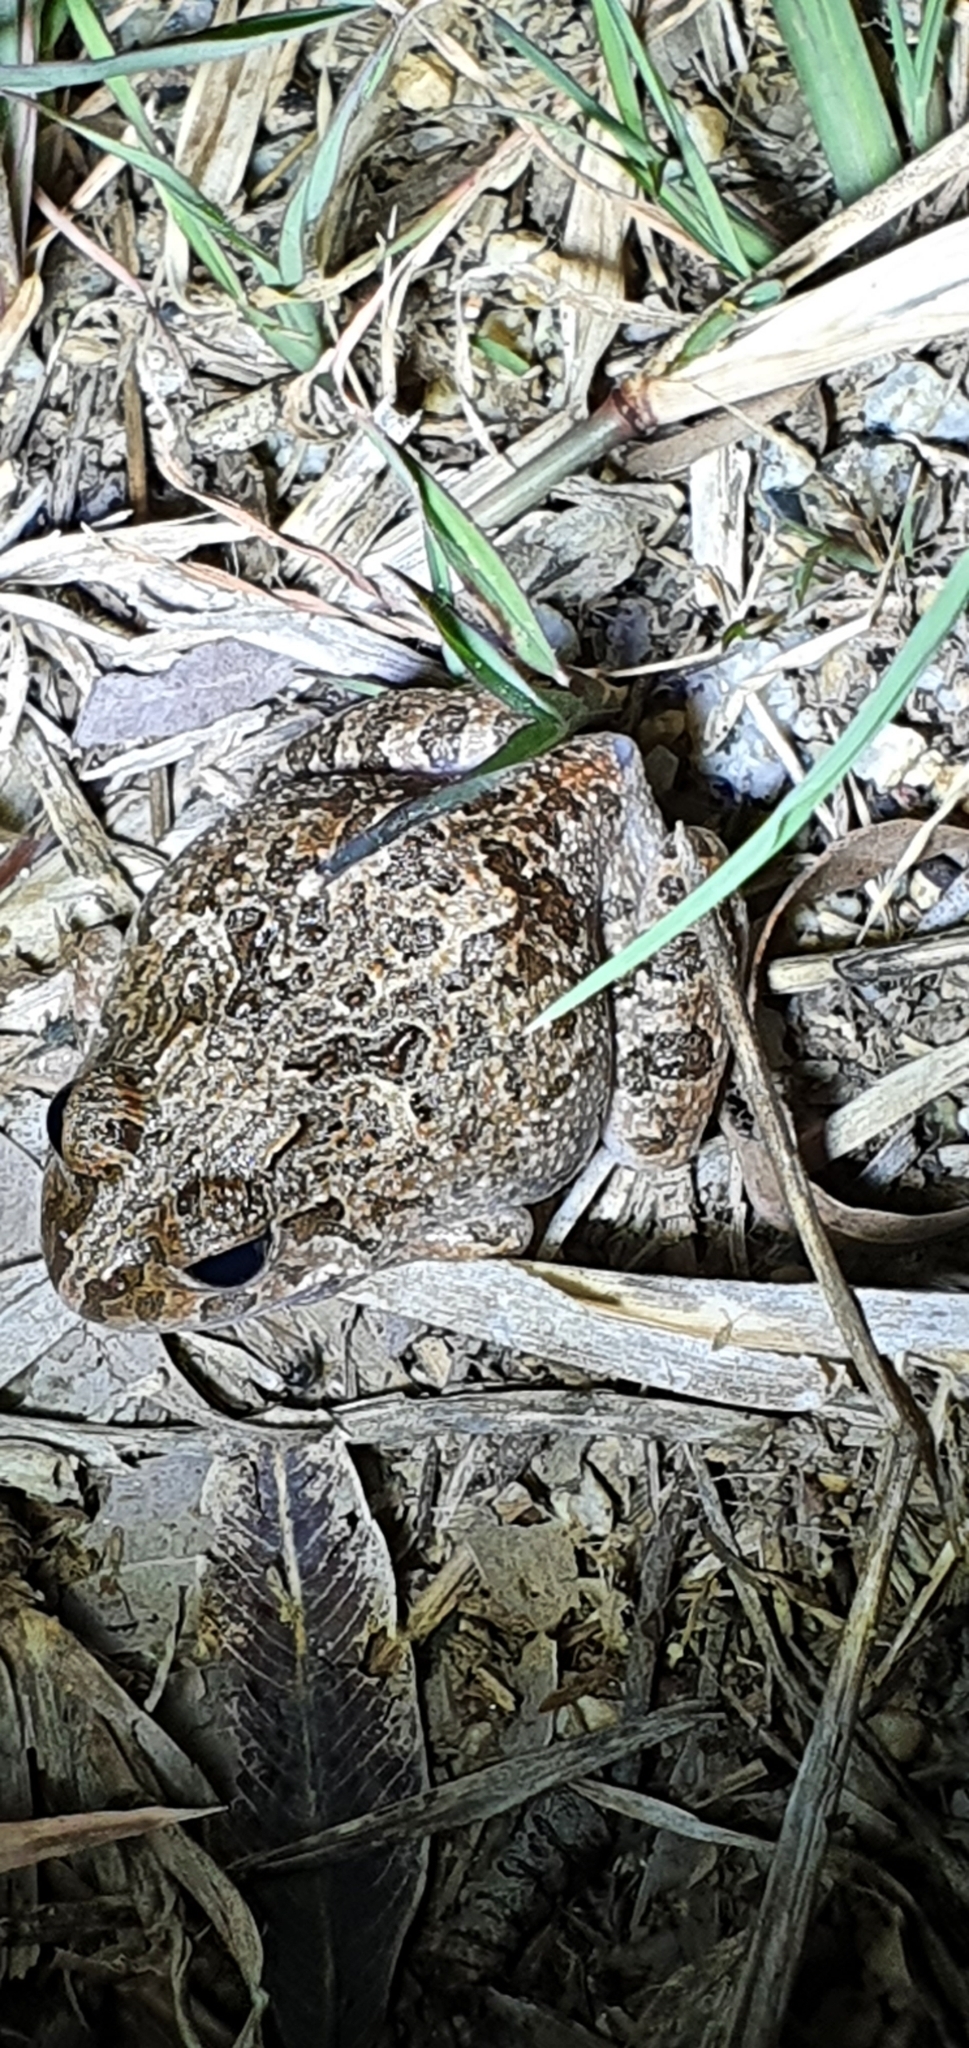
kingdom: Animalia
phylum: Chordata
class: Amphibia
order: Anura
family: Limnodynastidae
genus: Platyplectrum
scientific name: Platyplectrum ornatum
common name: Ornate burrowing frog
